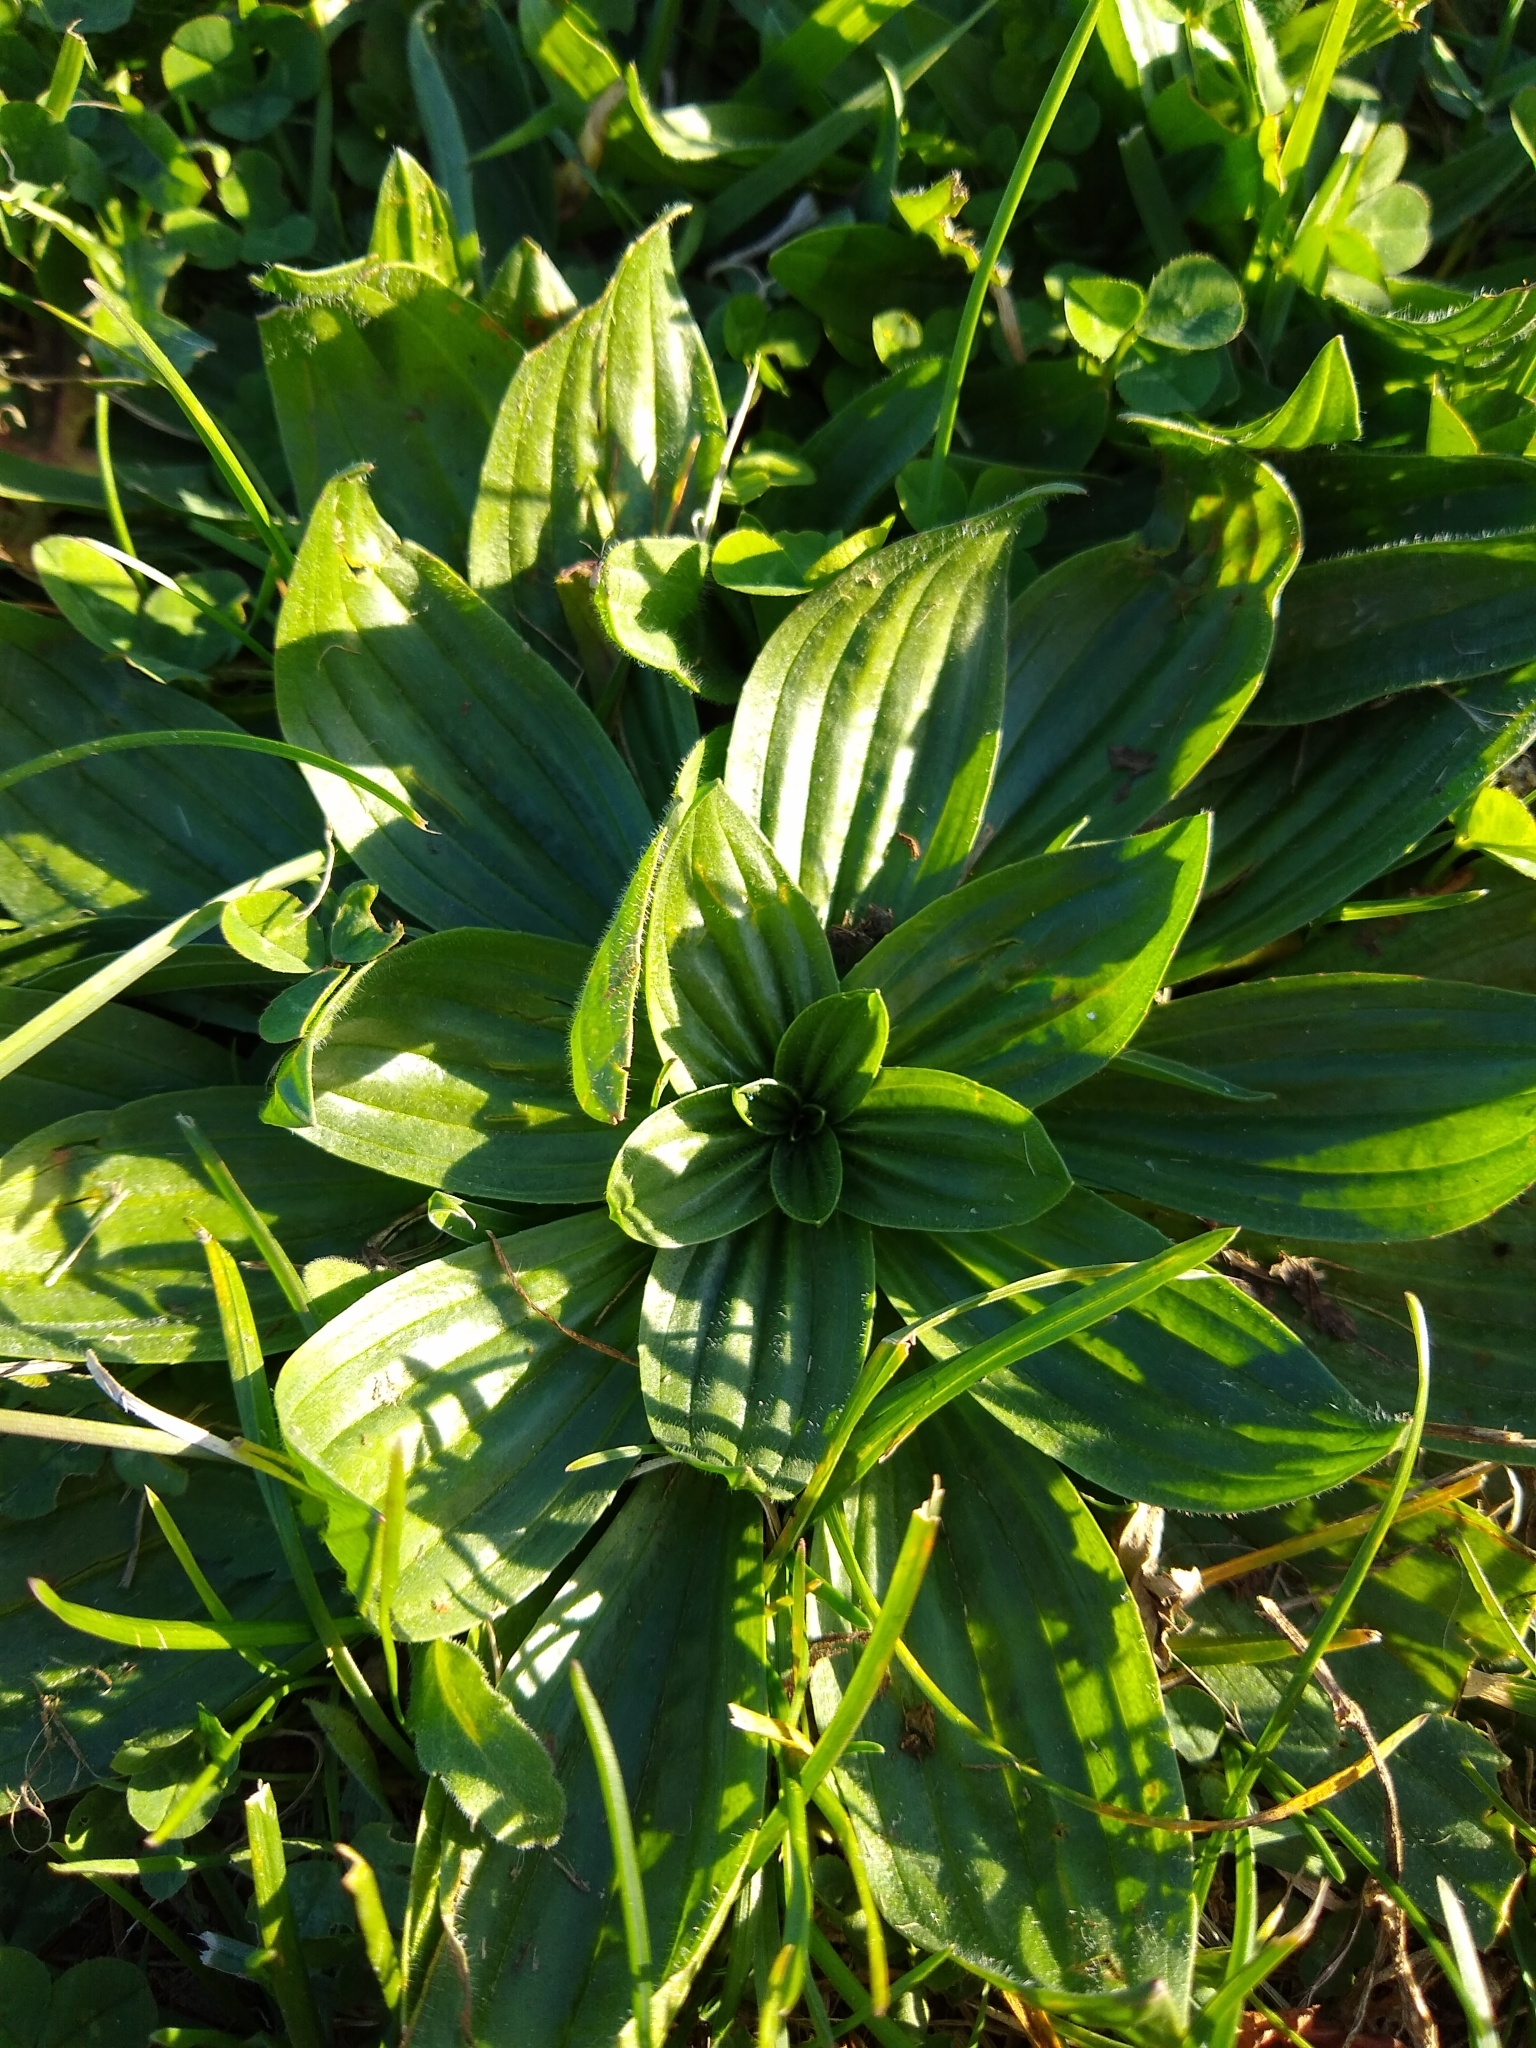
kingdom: Plantae
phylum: Tracheophyta
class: Magnoliopsida
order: Lamiales
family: Plantaginaceae
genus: Plantago
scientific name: Plantago major
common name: Common plantain
